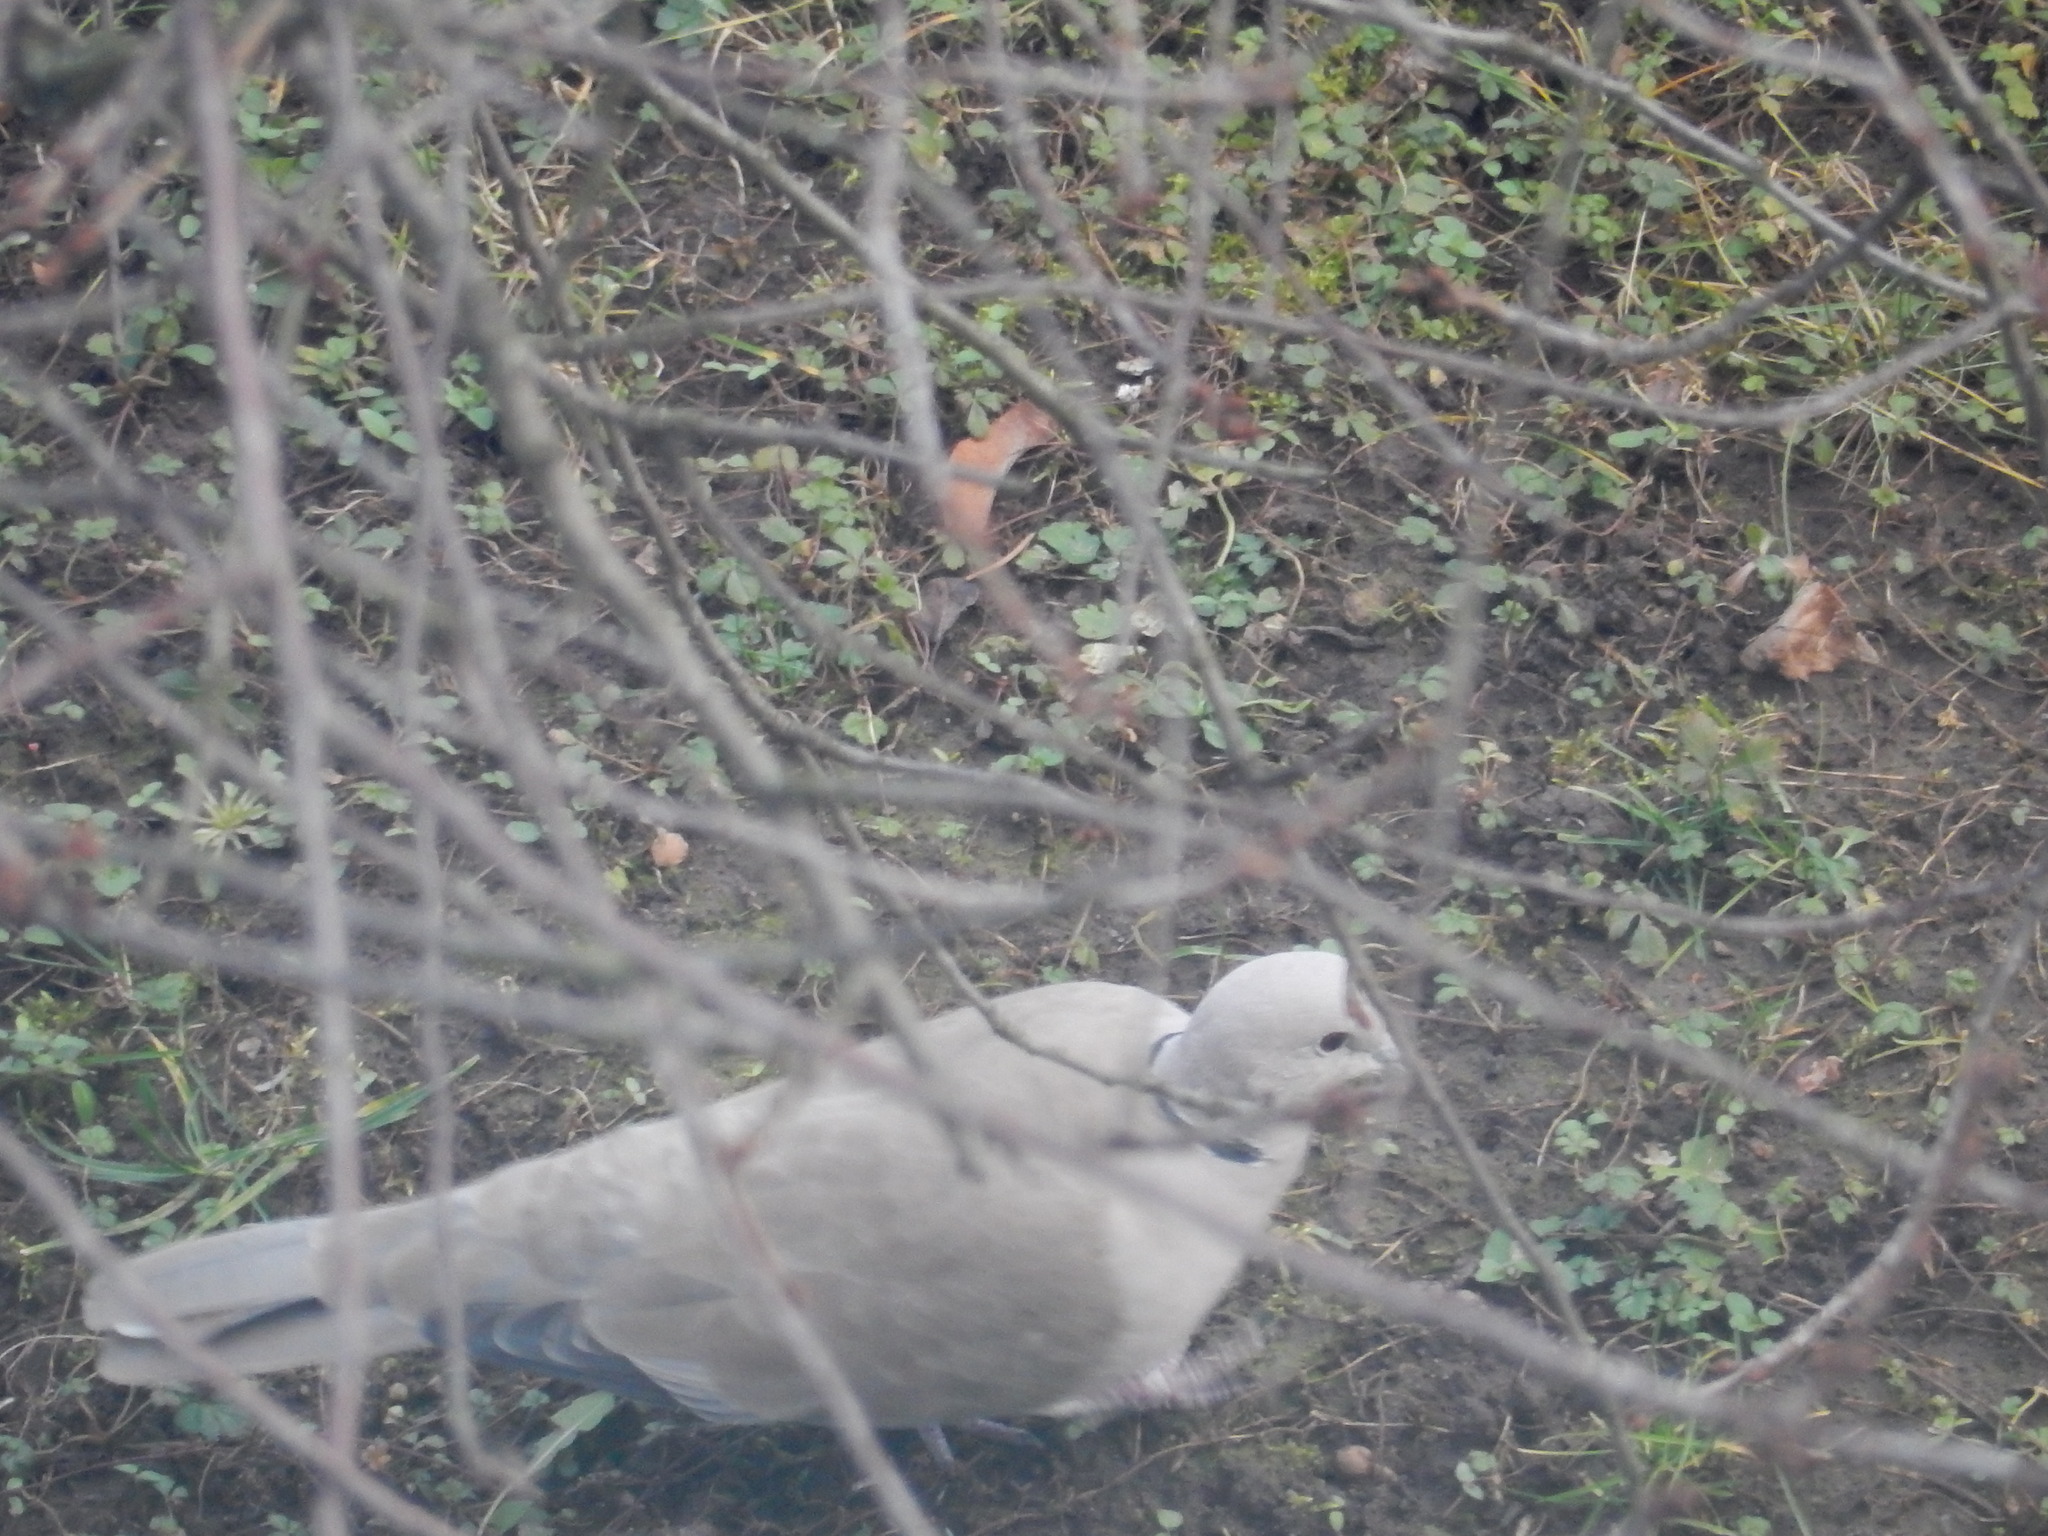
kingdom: Animalia
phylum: Chordata
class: Aves
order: Columbiformes
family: Columbidae
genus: Streptopelia
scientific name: Streptopelia decaocto
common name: Eurasian collared dove
